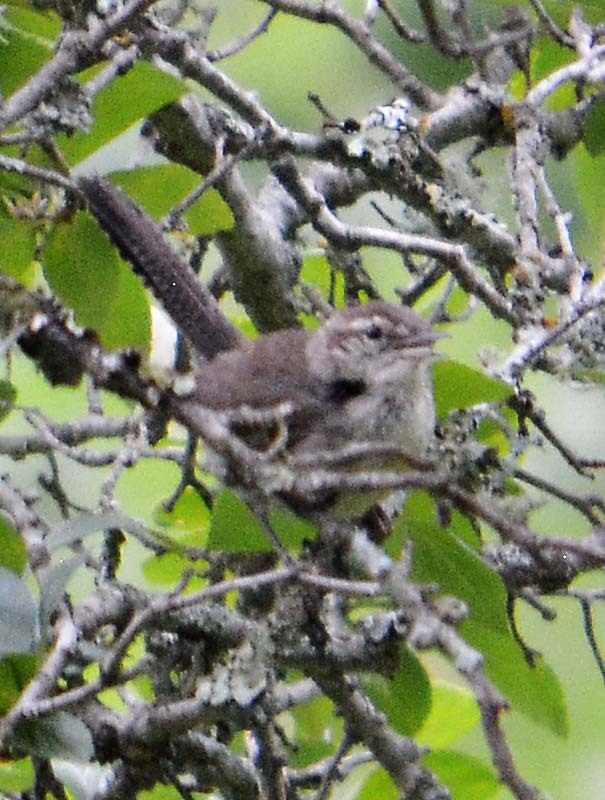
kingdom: Animalia
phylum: Chordata
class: Aves
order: Passeriformes
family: Troglodytidae
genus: Thryomanes
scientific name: Thryomanes bewickii
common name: Bewick's wren
